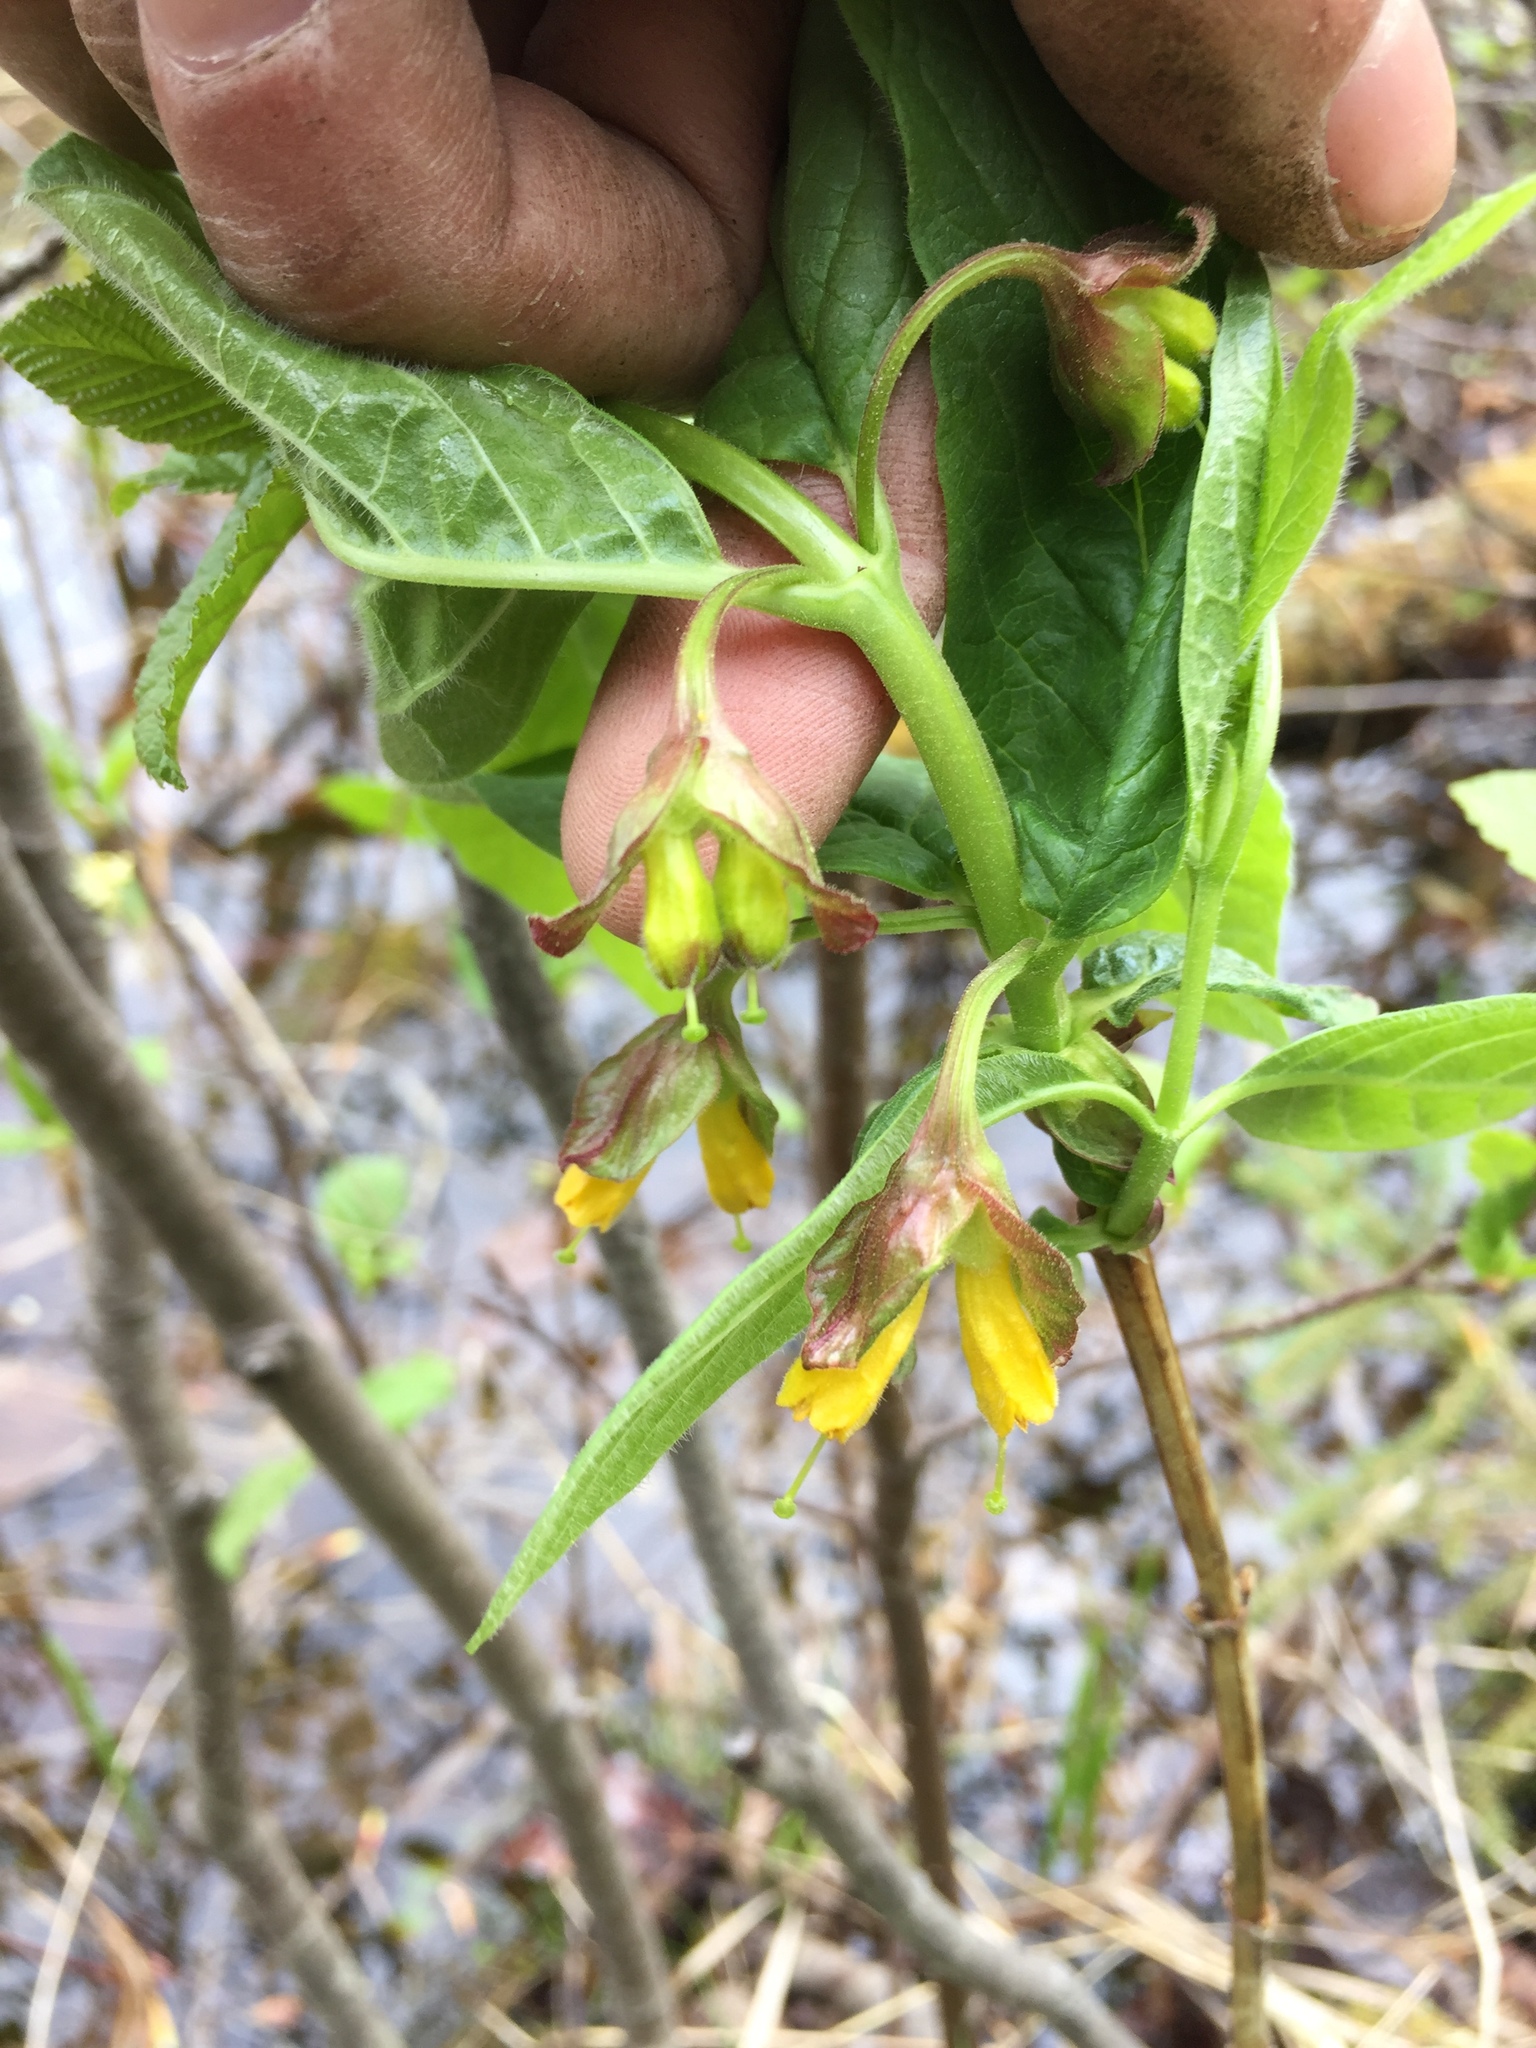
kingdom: Plantae
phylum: Tracheophyta
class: Magnoliopsida
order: Dipsacales
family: Caprifoliaceae
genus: Lonicera
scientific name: Lonicera involucrata
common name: Californian honeysuckle
